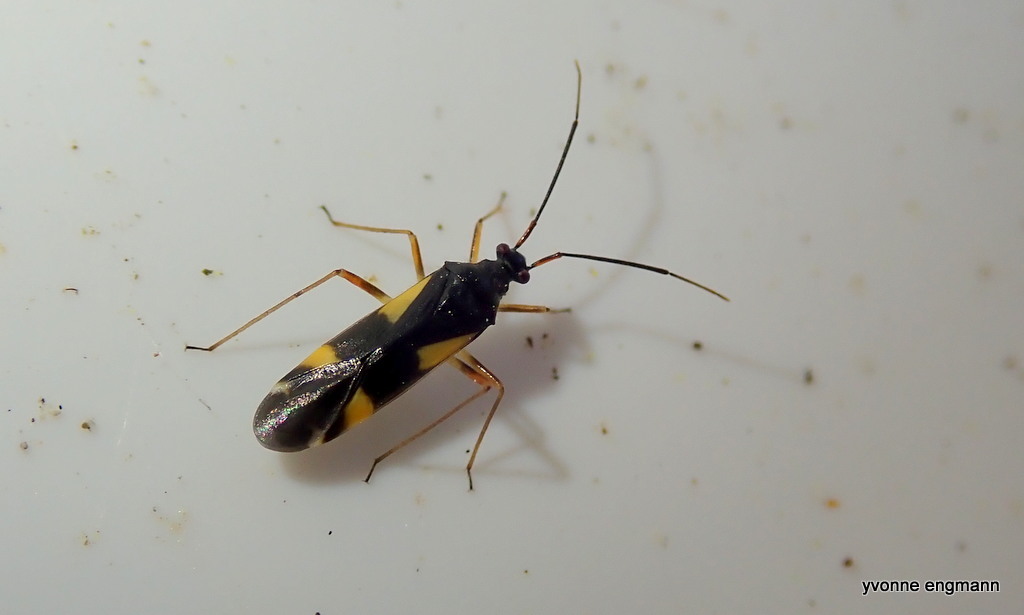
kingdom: Animalia
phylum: Arthropoda
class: Insecta
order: Hemiptera
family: Miridae
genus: Dryophilocoris
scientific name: Dryophilocoris flavoquadrimaculatus
